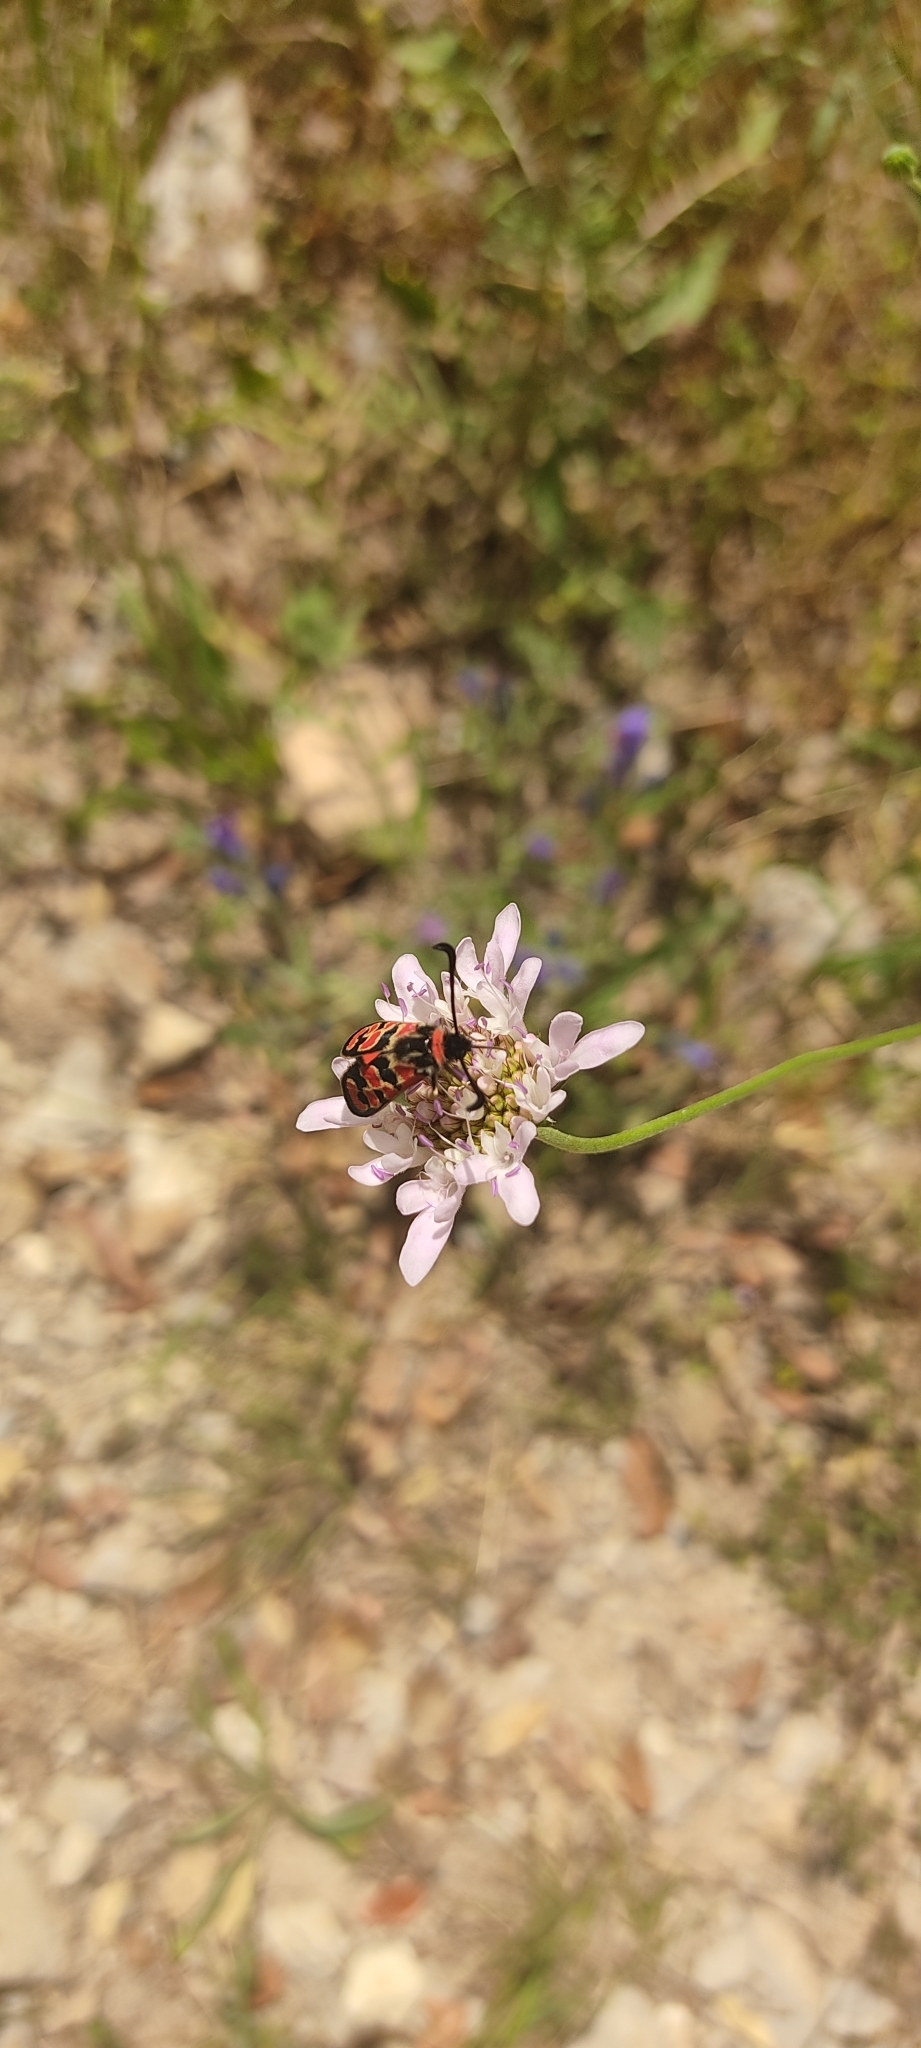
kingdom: Animalia
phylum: Arthropoda
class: Insecta
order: Lepidoptera
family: Zygaenidae
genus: Zygaena
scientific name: Zygaena fausta
